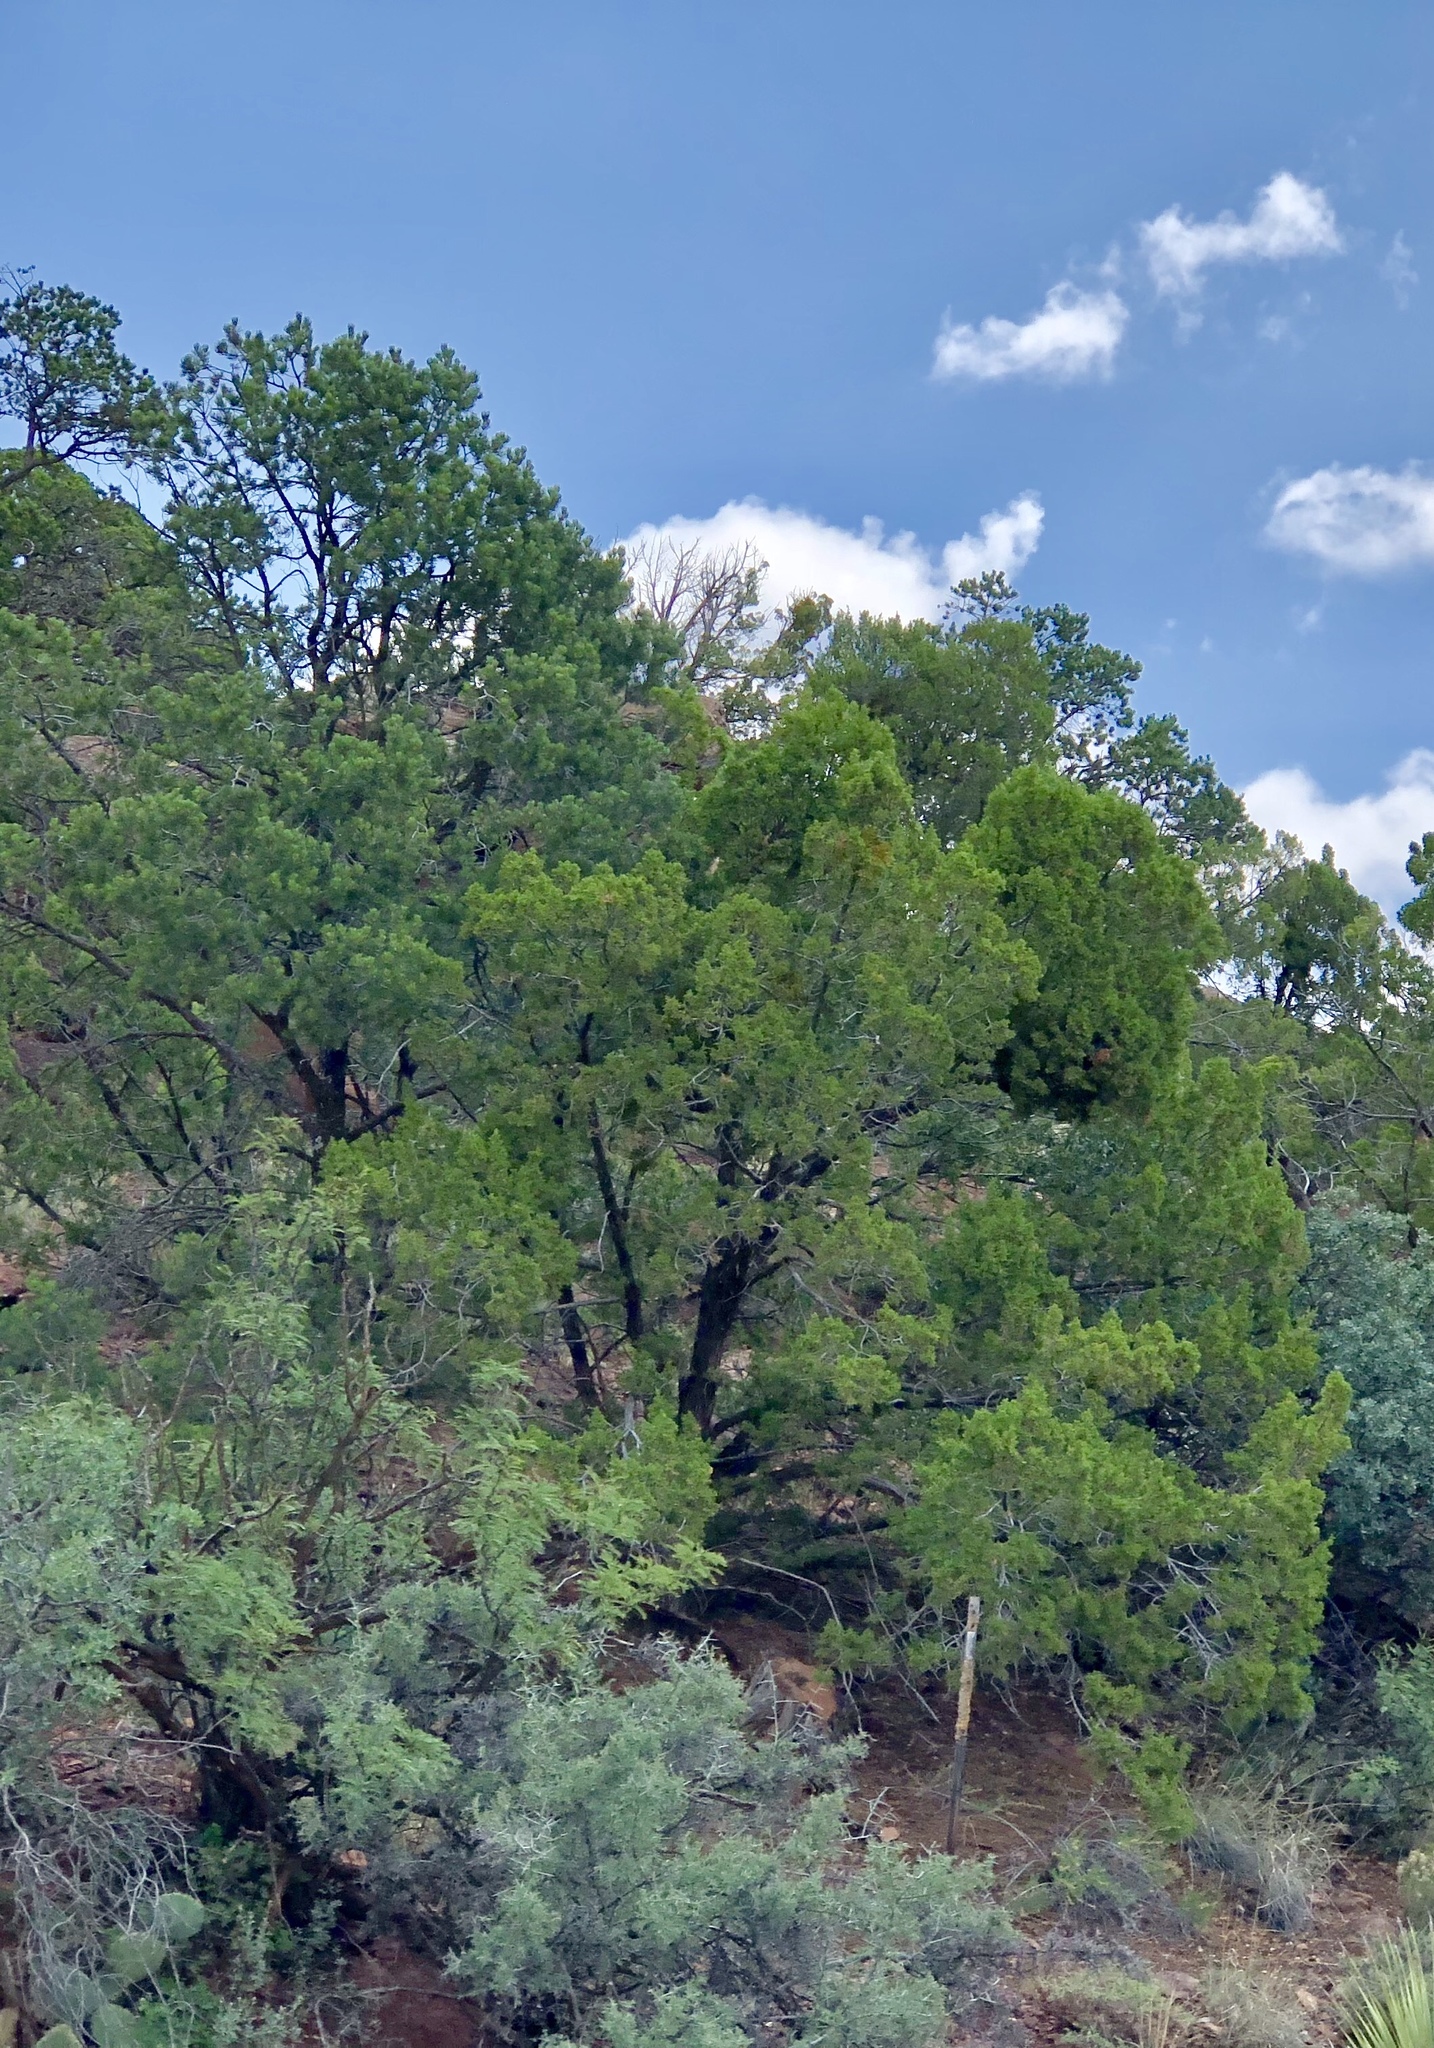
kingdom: Plantae
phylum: Tracheophyta
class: Pinopsida
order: Pinales
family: Pinaceae
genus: Pinus
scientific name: Pinus edulis
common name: Colorado pinyon
